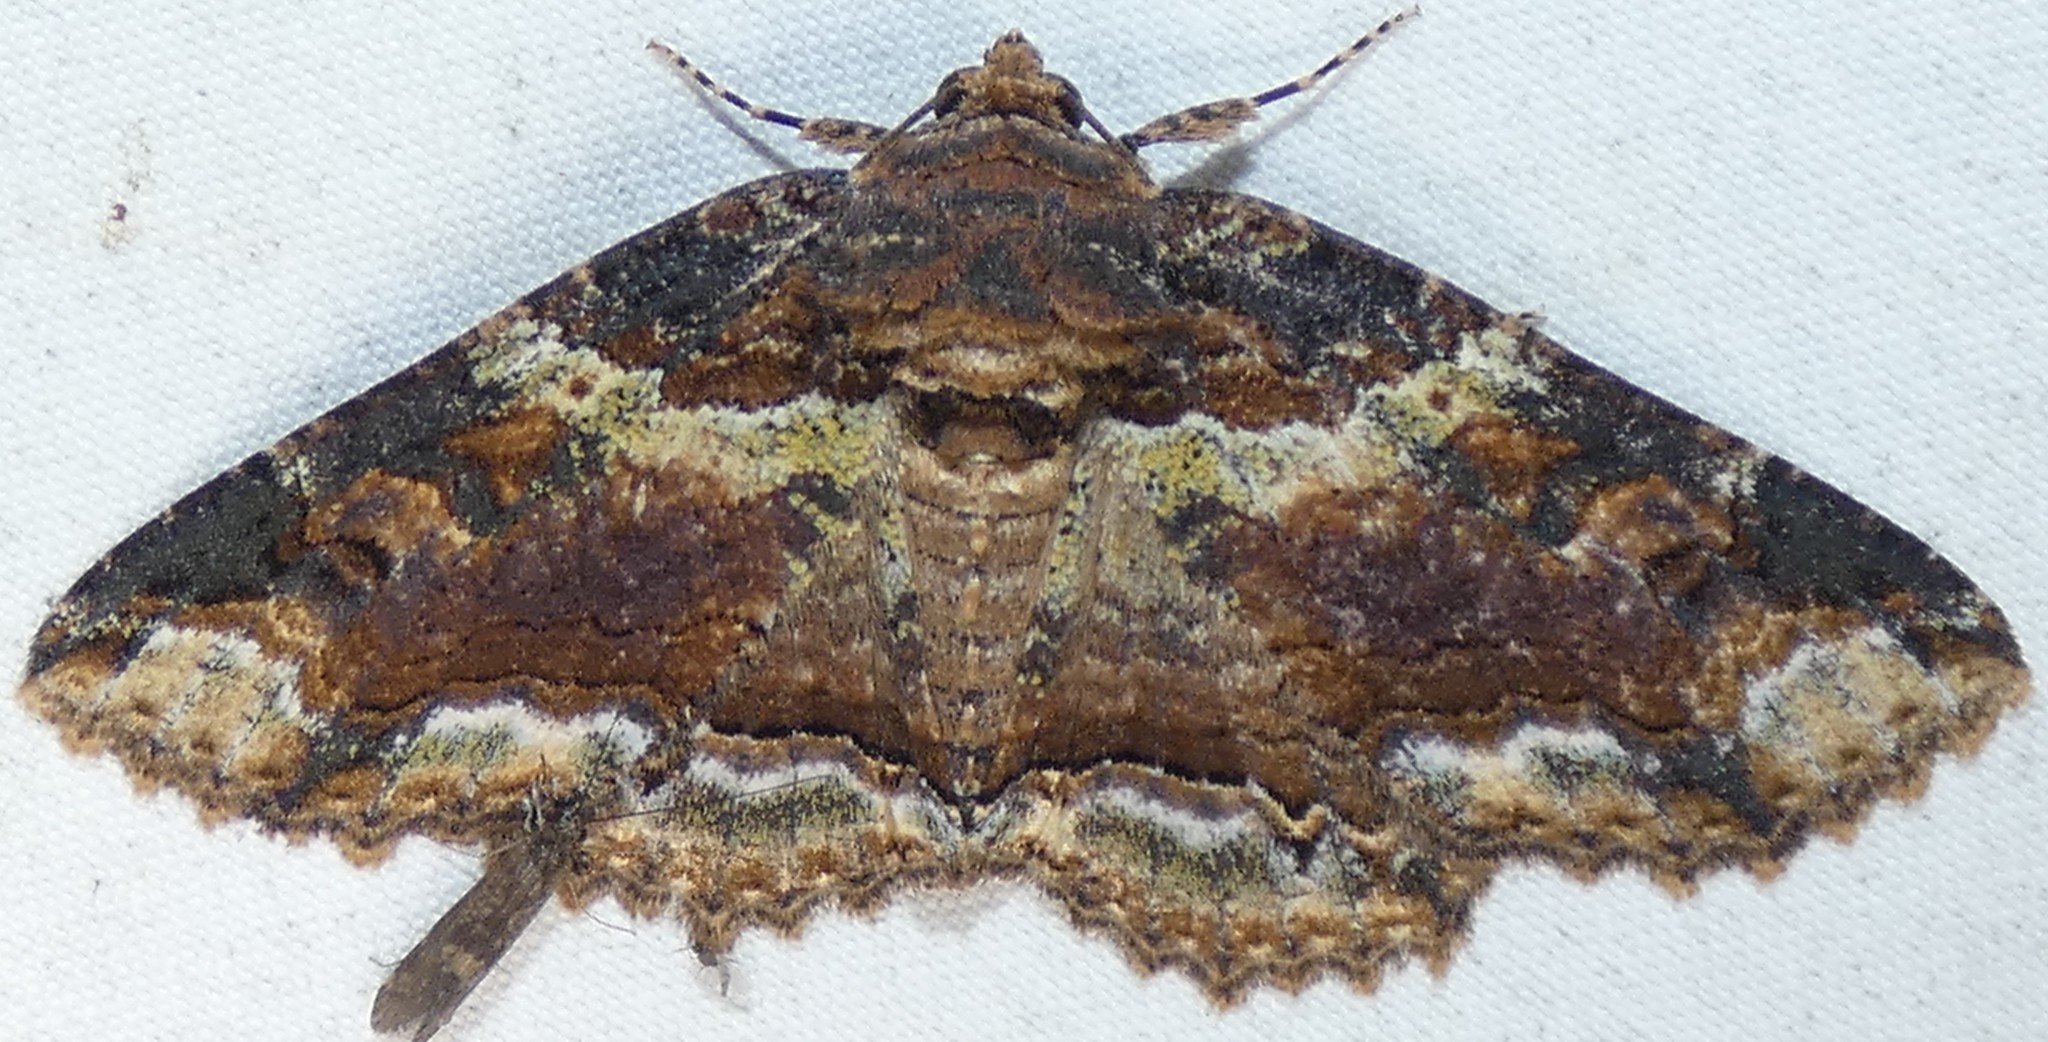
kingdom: Animalia
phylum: Arthropoda
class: Insecta
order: Lepidoptera
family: Erebidae
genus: Zale
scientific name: Zale minerea
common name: Colorful zale moth
